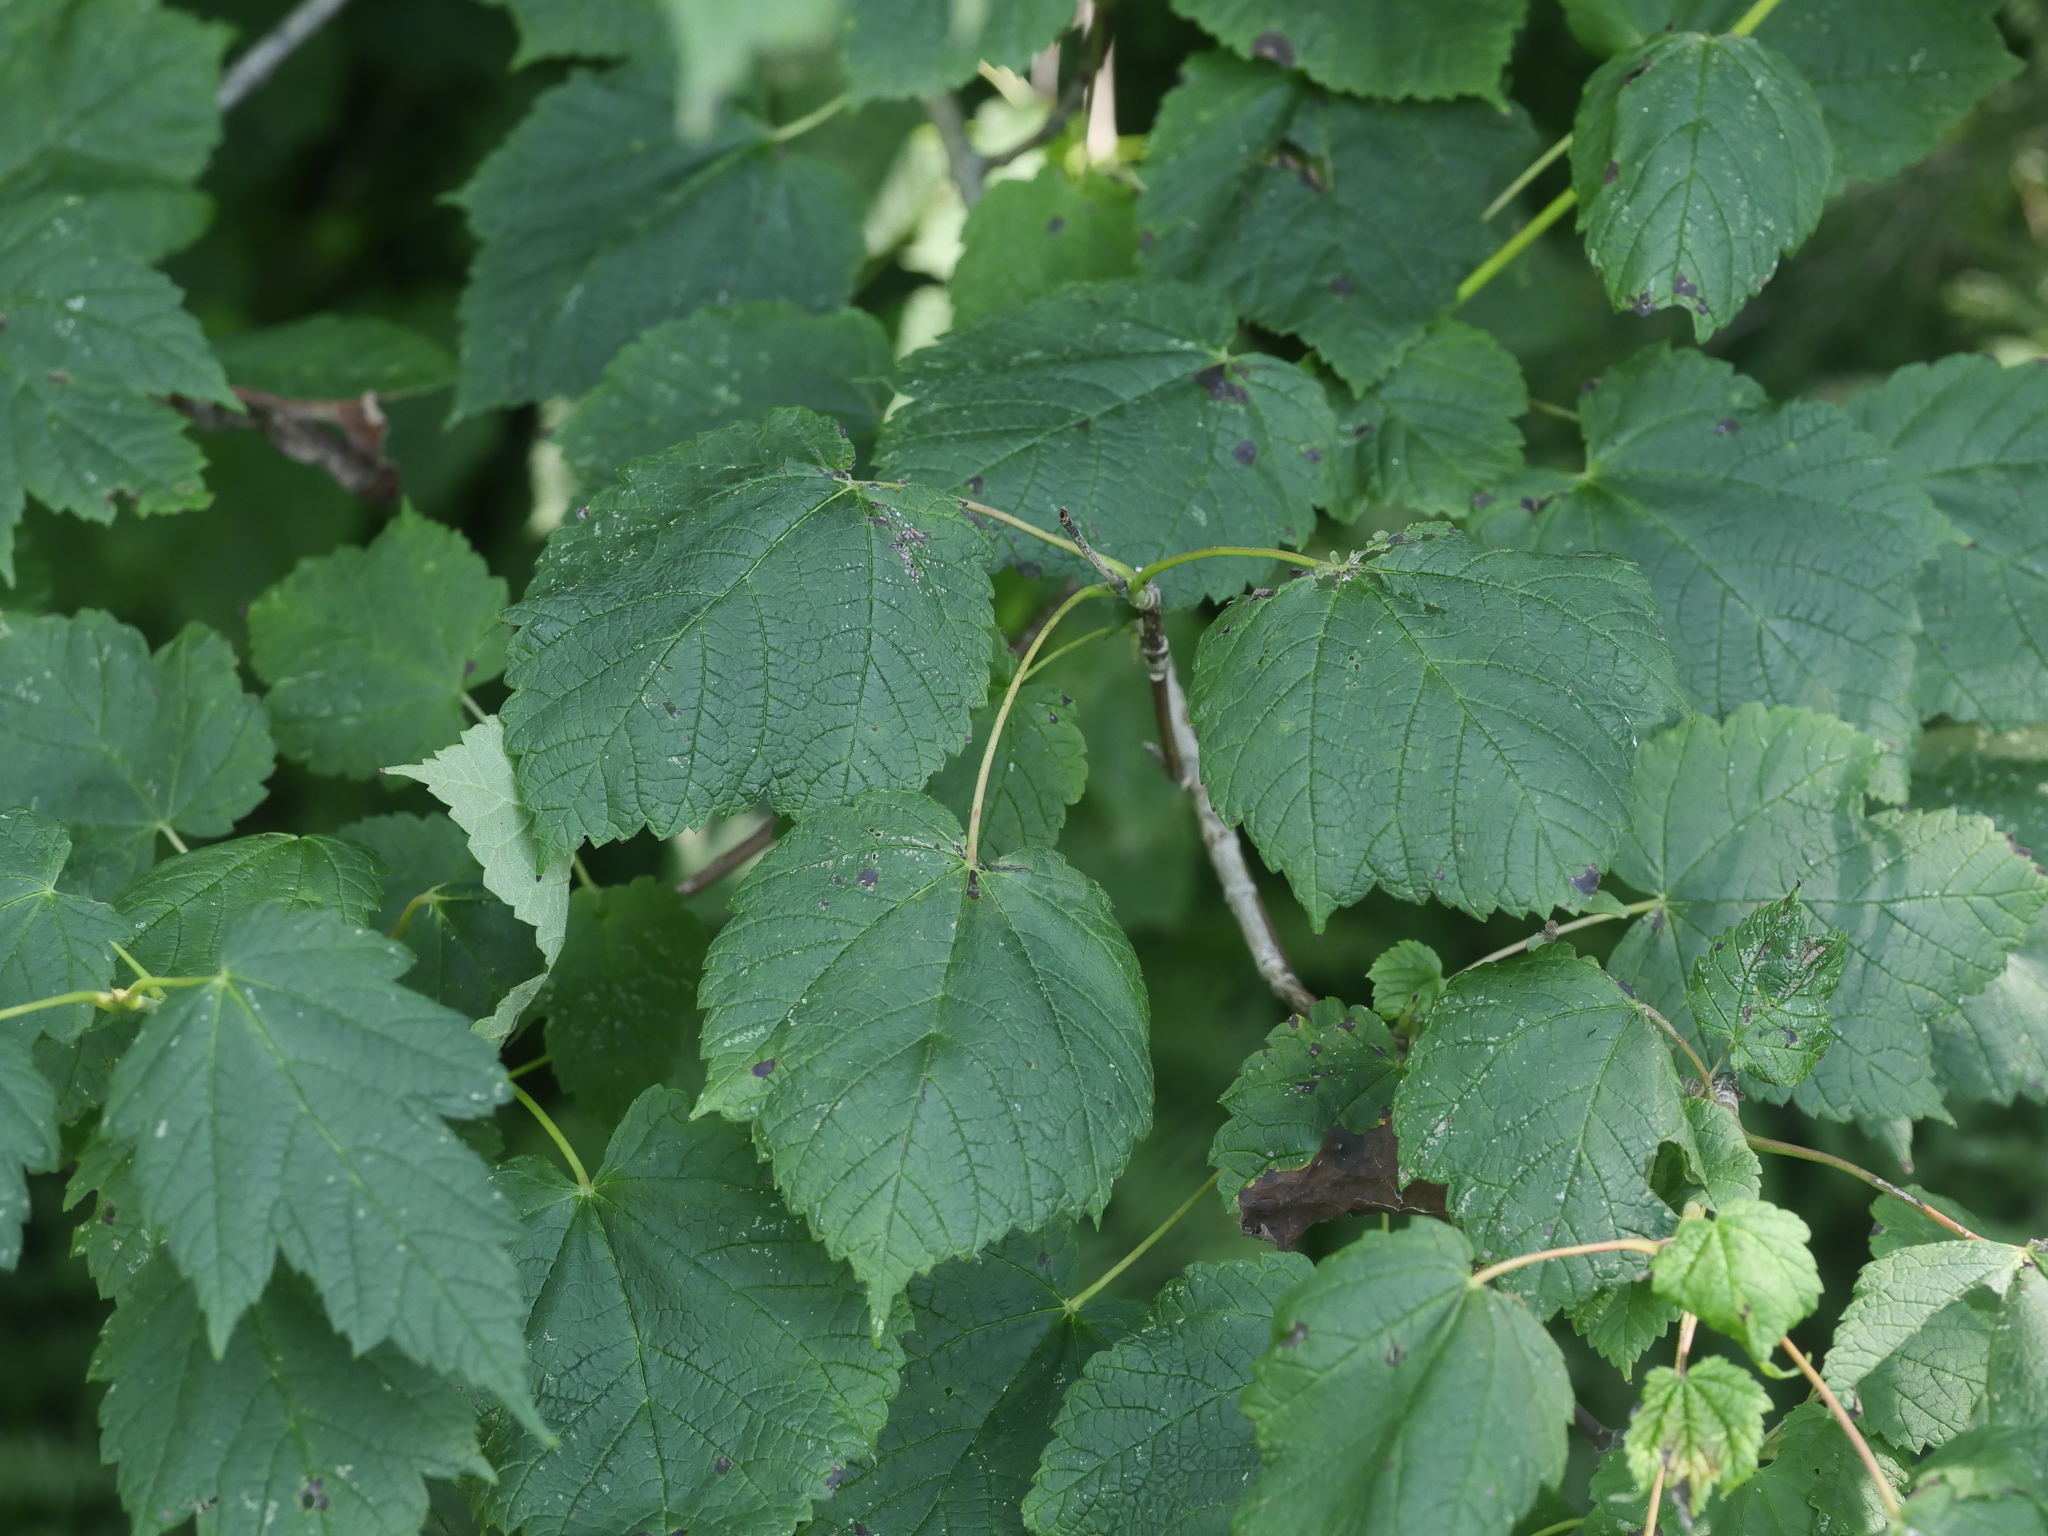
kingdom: Plantae
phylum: Tracheophyta
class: Magnoliopsida
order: Sapindales
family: Sapindaceae
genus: Acer
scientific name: Acer spicatum
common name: Mountain maple
